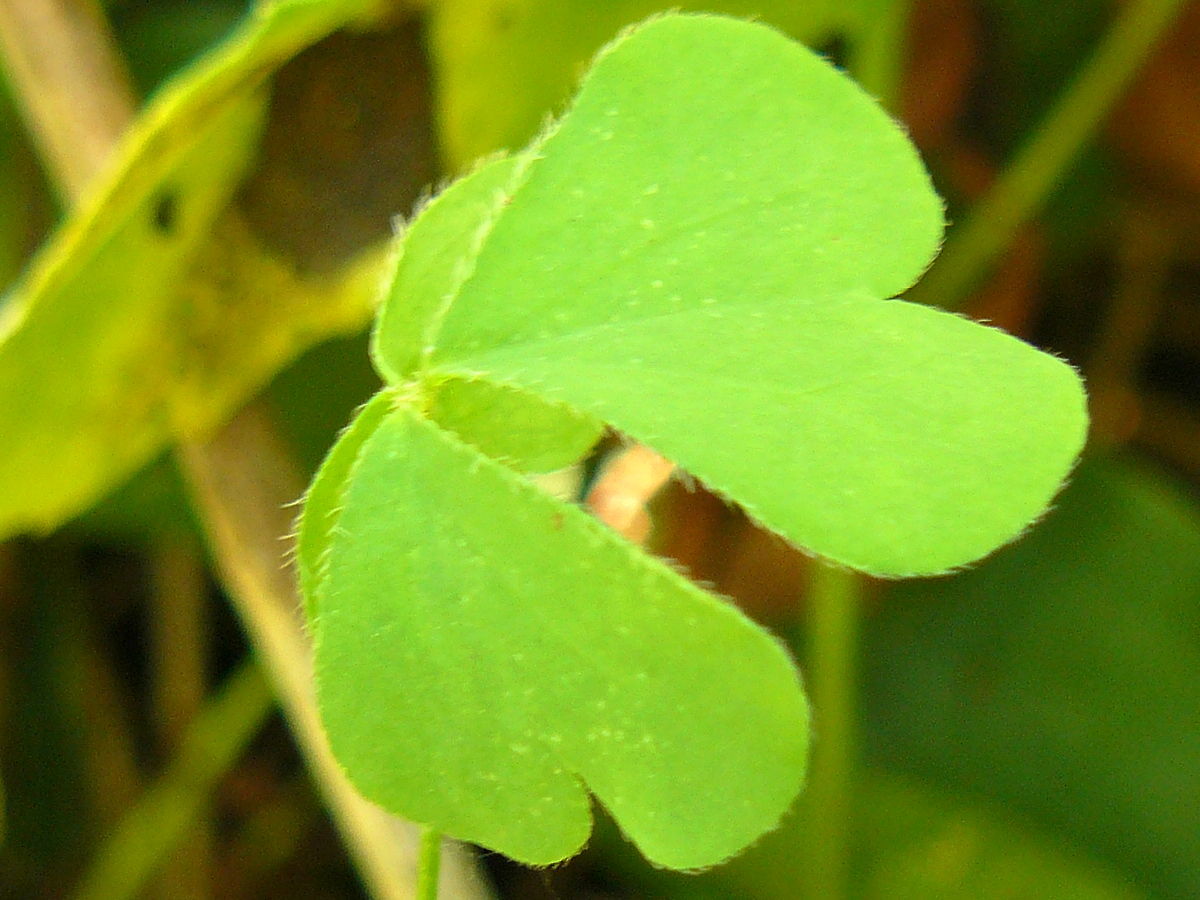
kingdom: Plantae
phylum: Tracheophyta
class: Magnoliopsida
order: Oxalidales
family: Oxalidaceae
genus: Oxalis
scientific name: Oxalis
